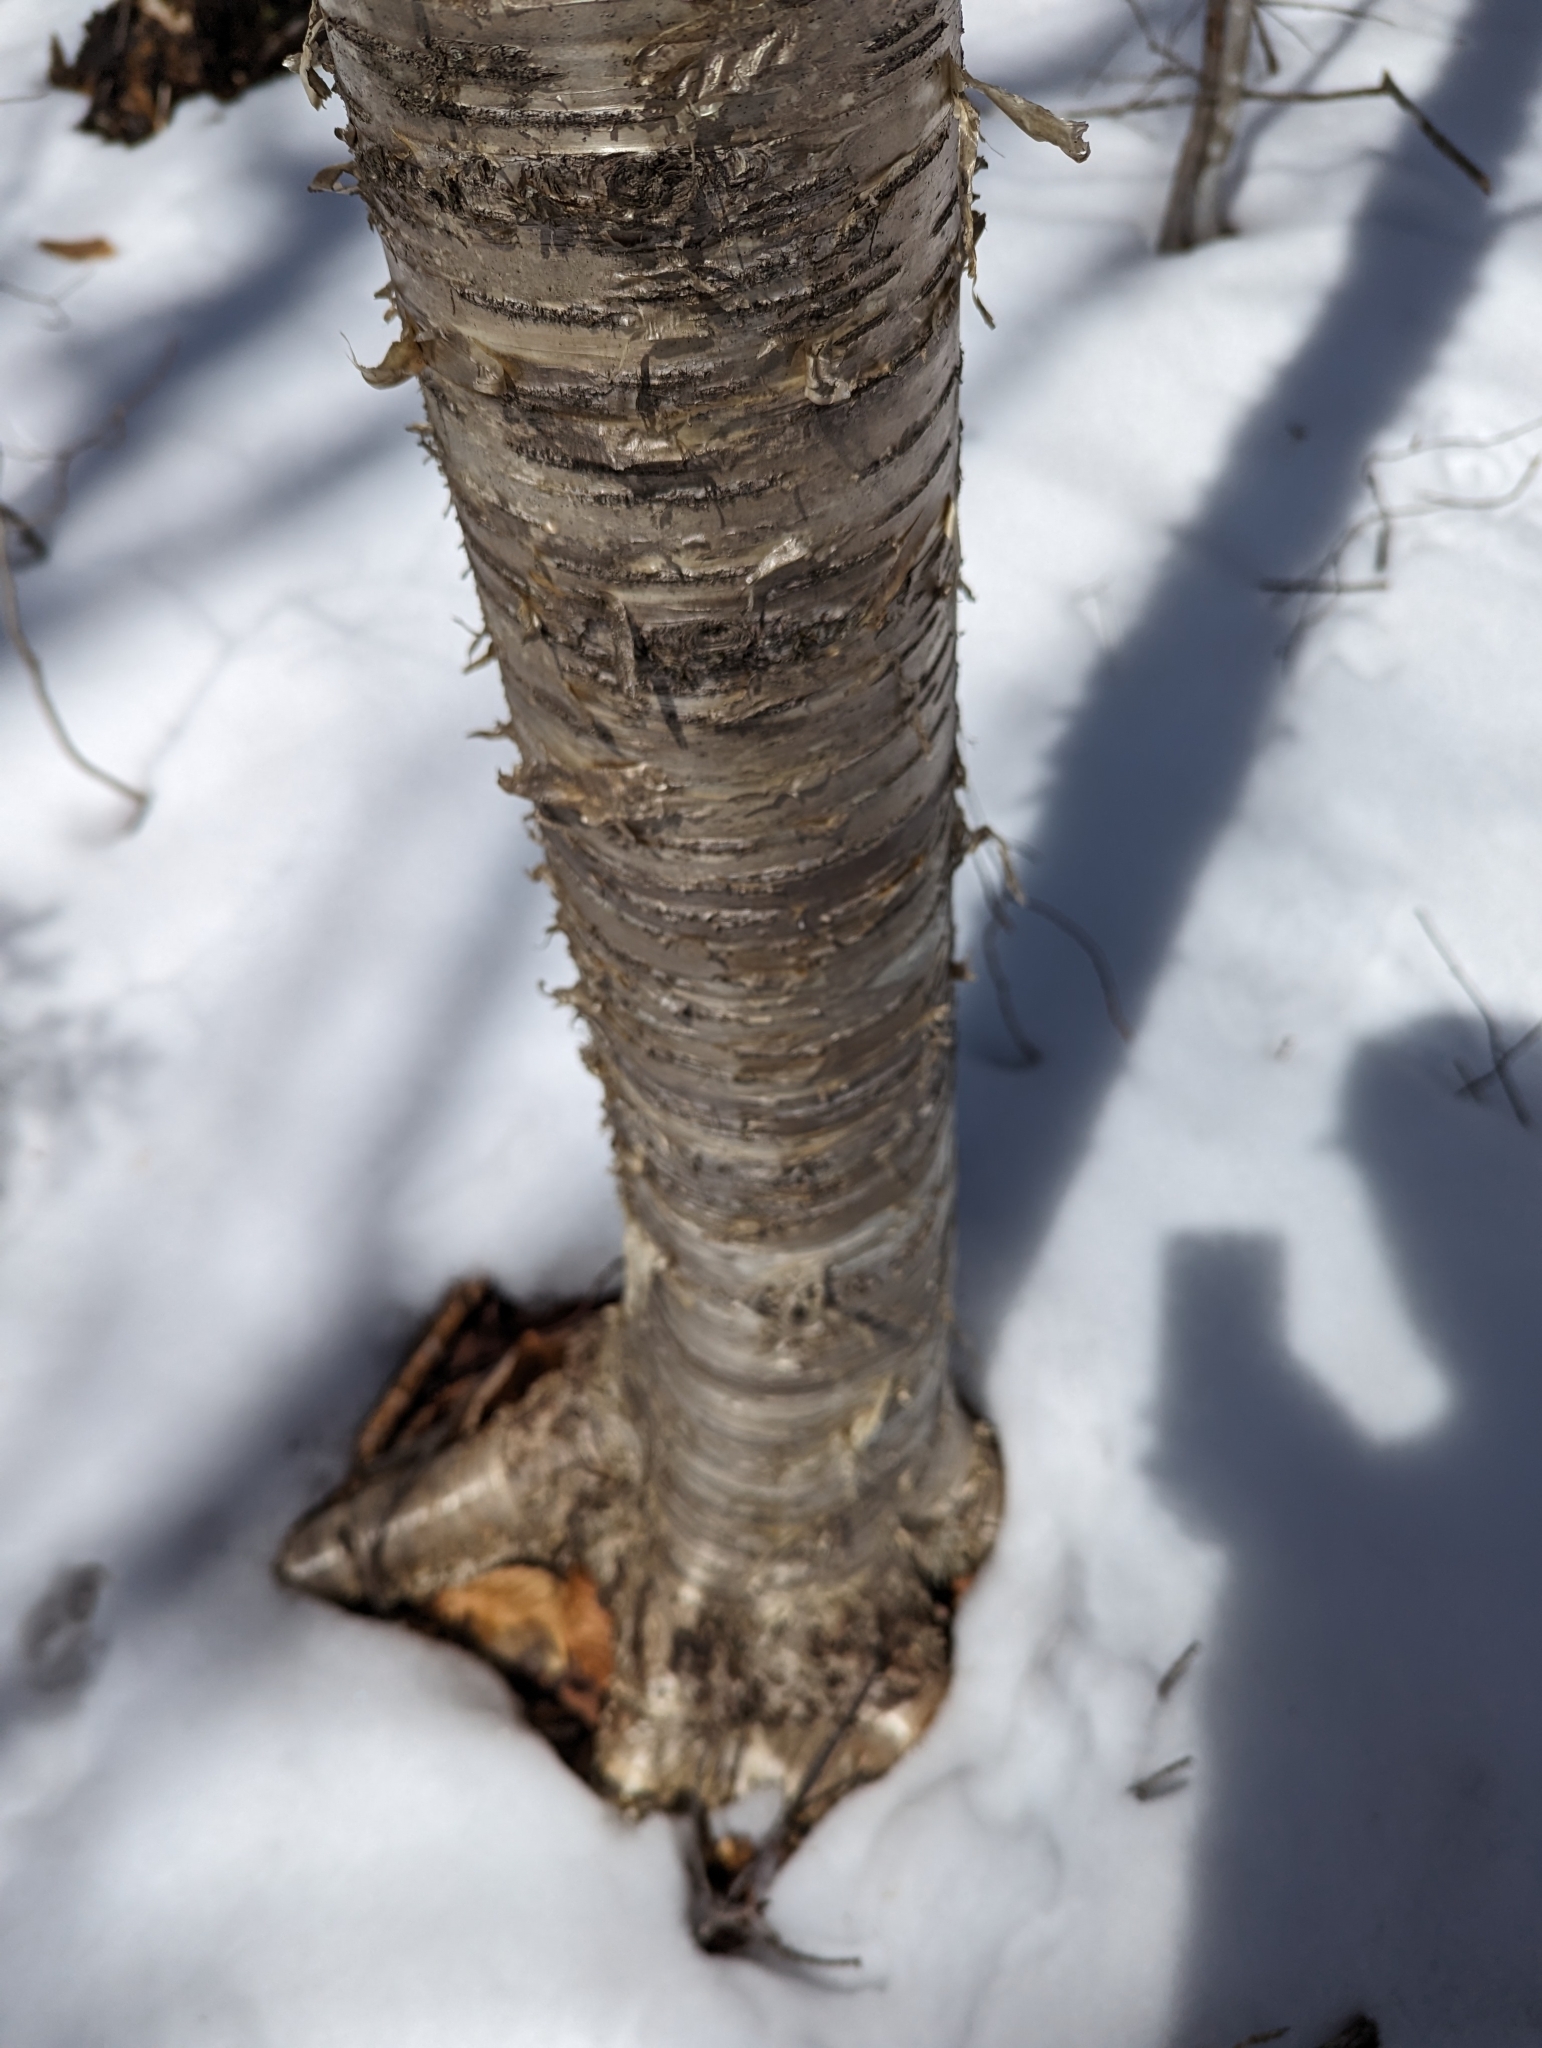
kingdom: Plantae
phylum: Tracheophyta
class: Magnoliopsida
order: Fagales
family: Betulaceae
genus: Betula
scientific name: Betula alleghaniensis
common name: Yellow birch
